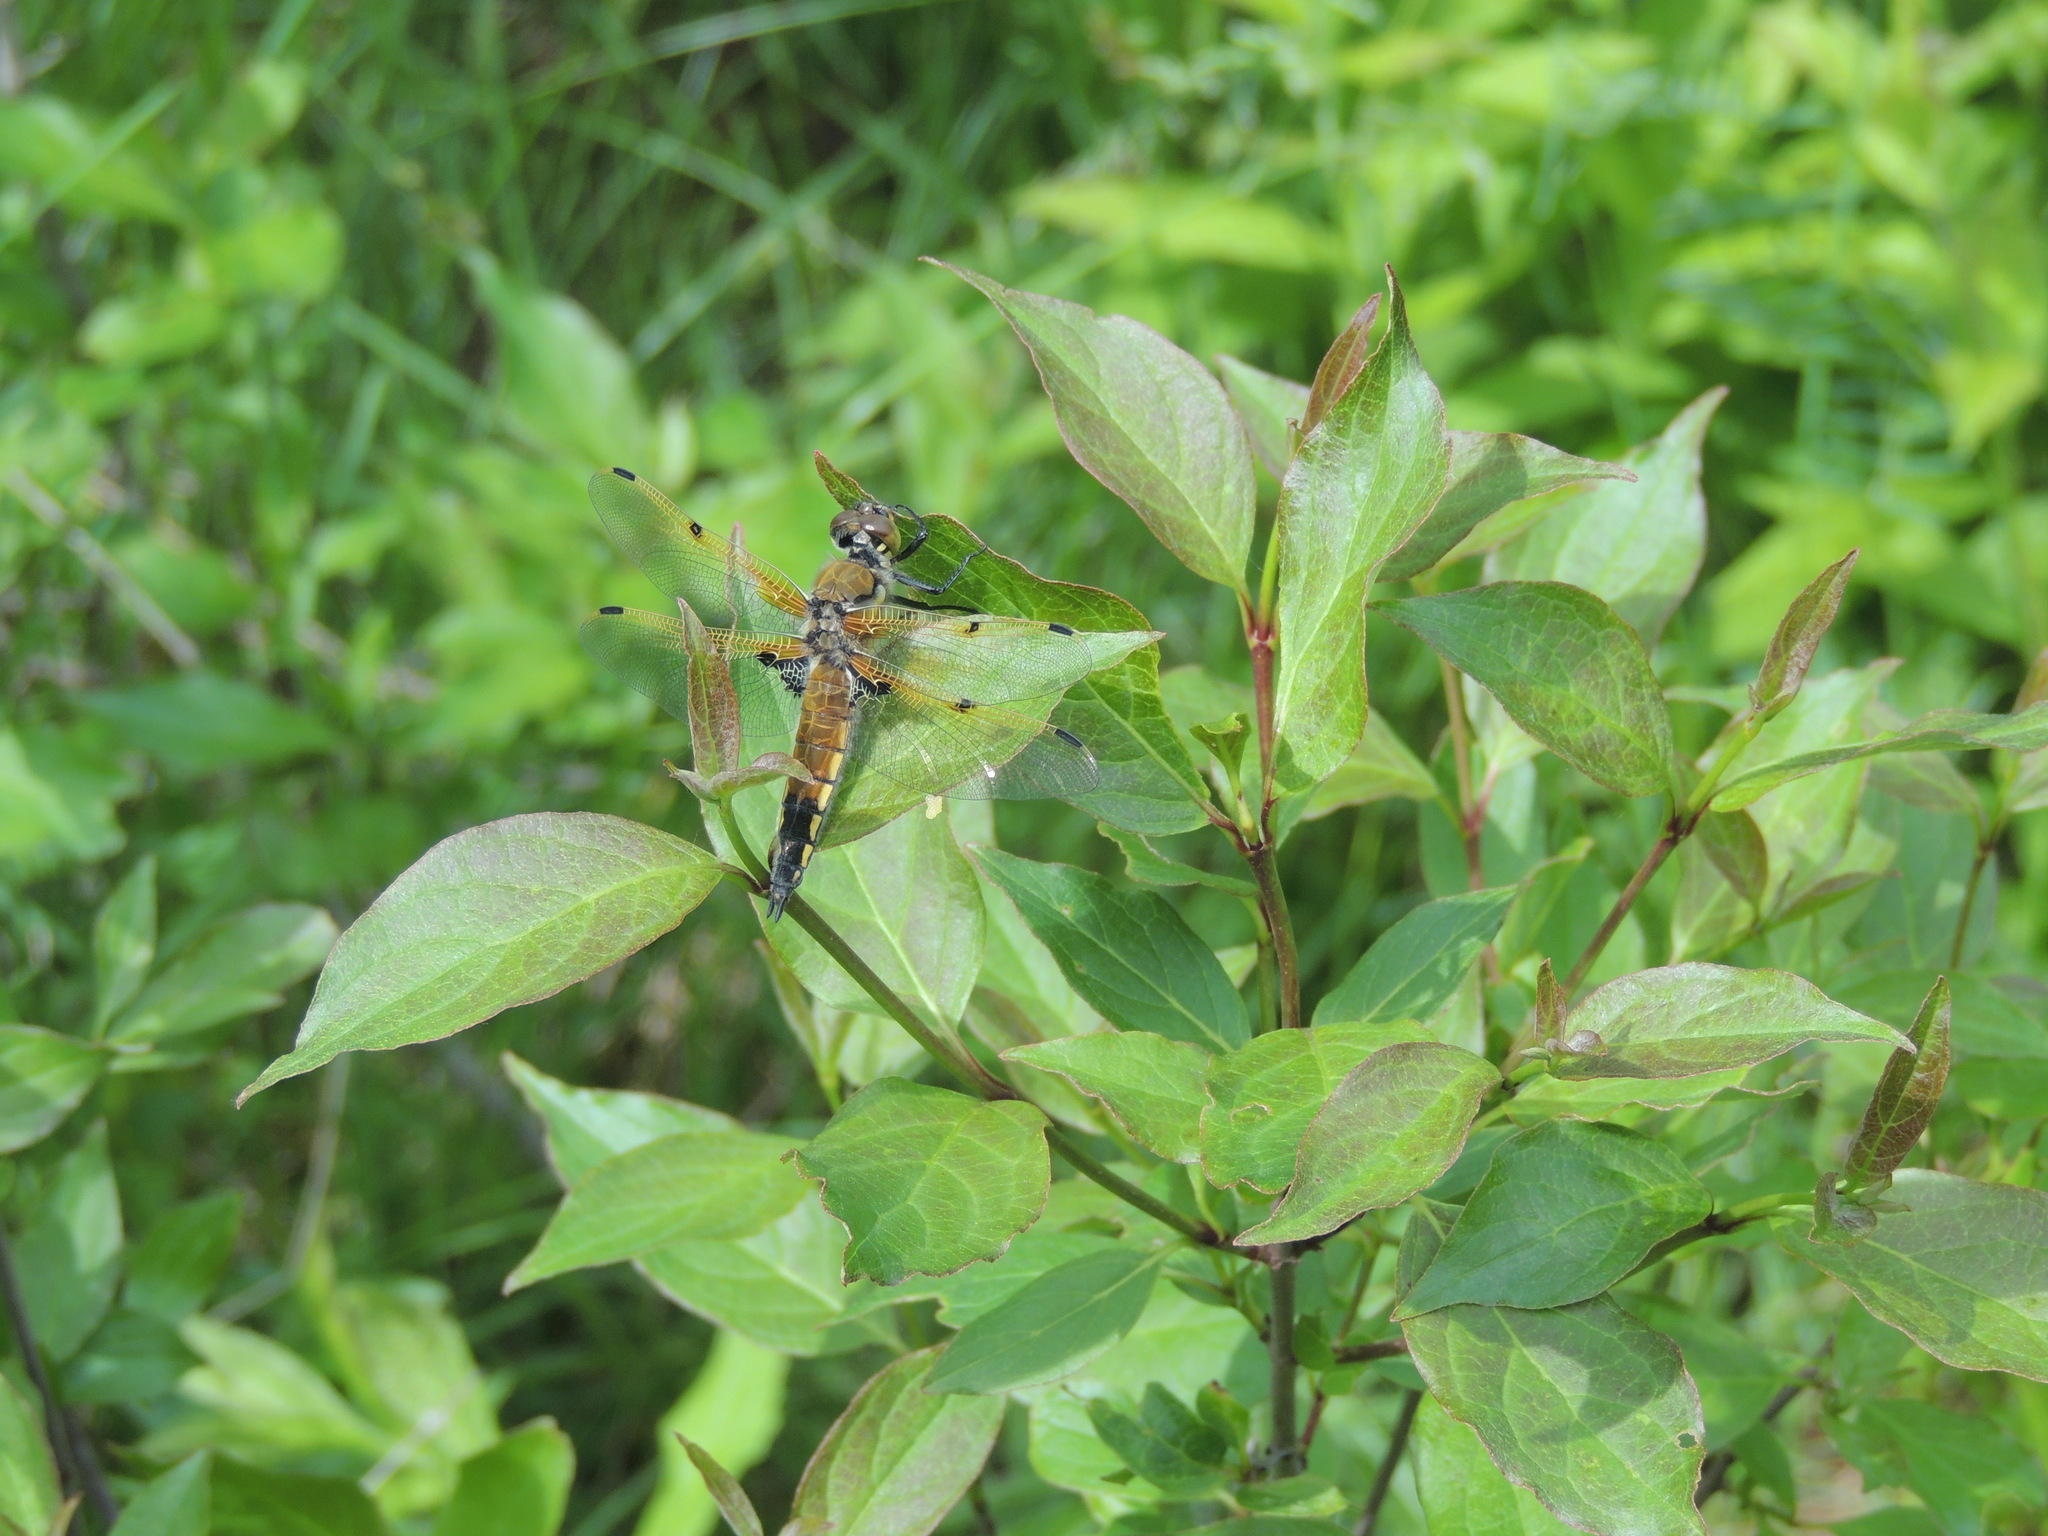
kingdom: Animalia
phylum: Arthropoda
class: Insecta
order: Odonata
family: Libellulidae
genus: Libellula
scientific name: Libellula quadrimaculata
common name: Four-spotted chaser
